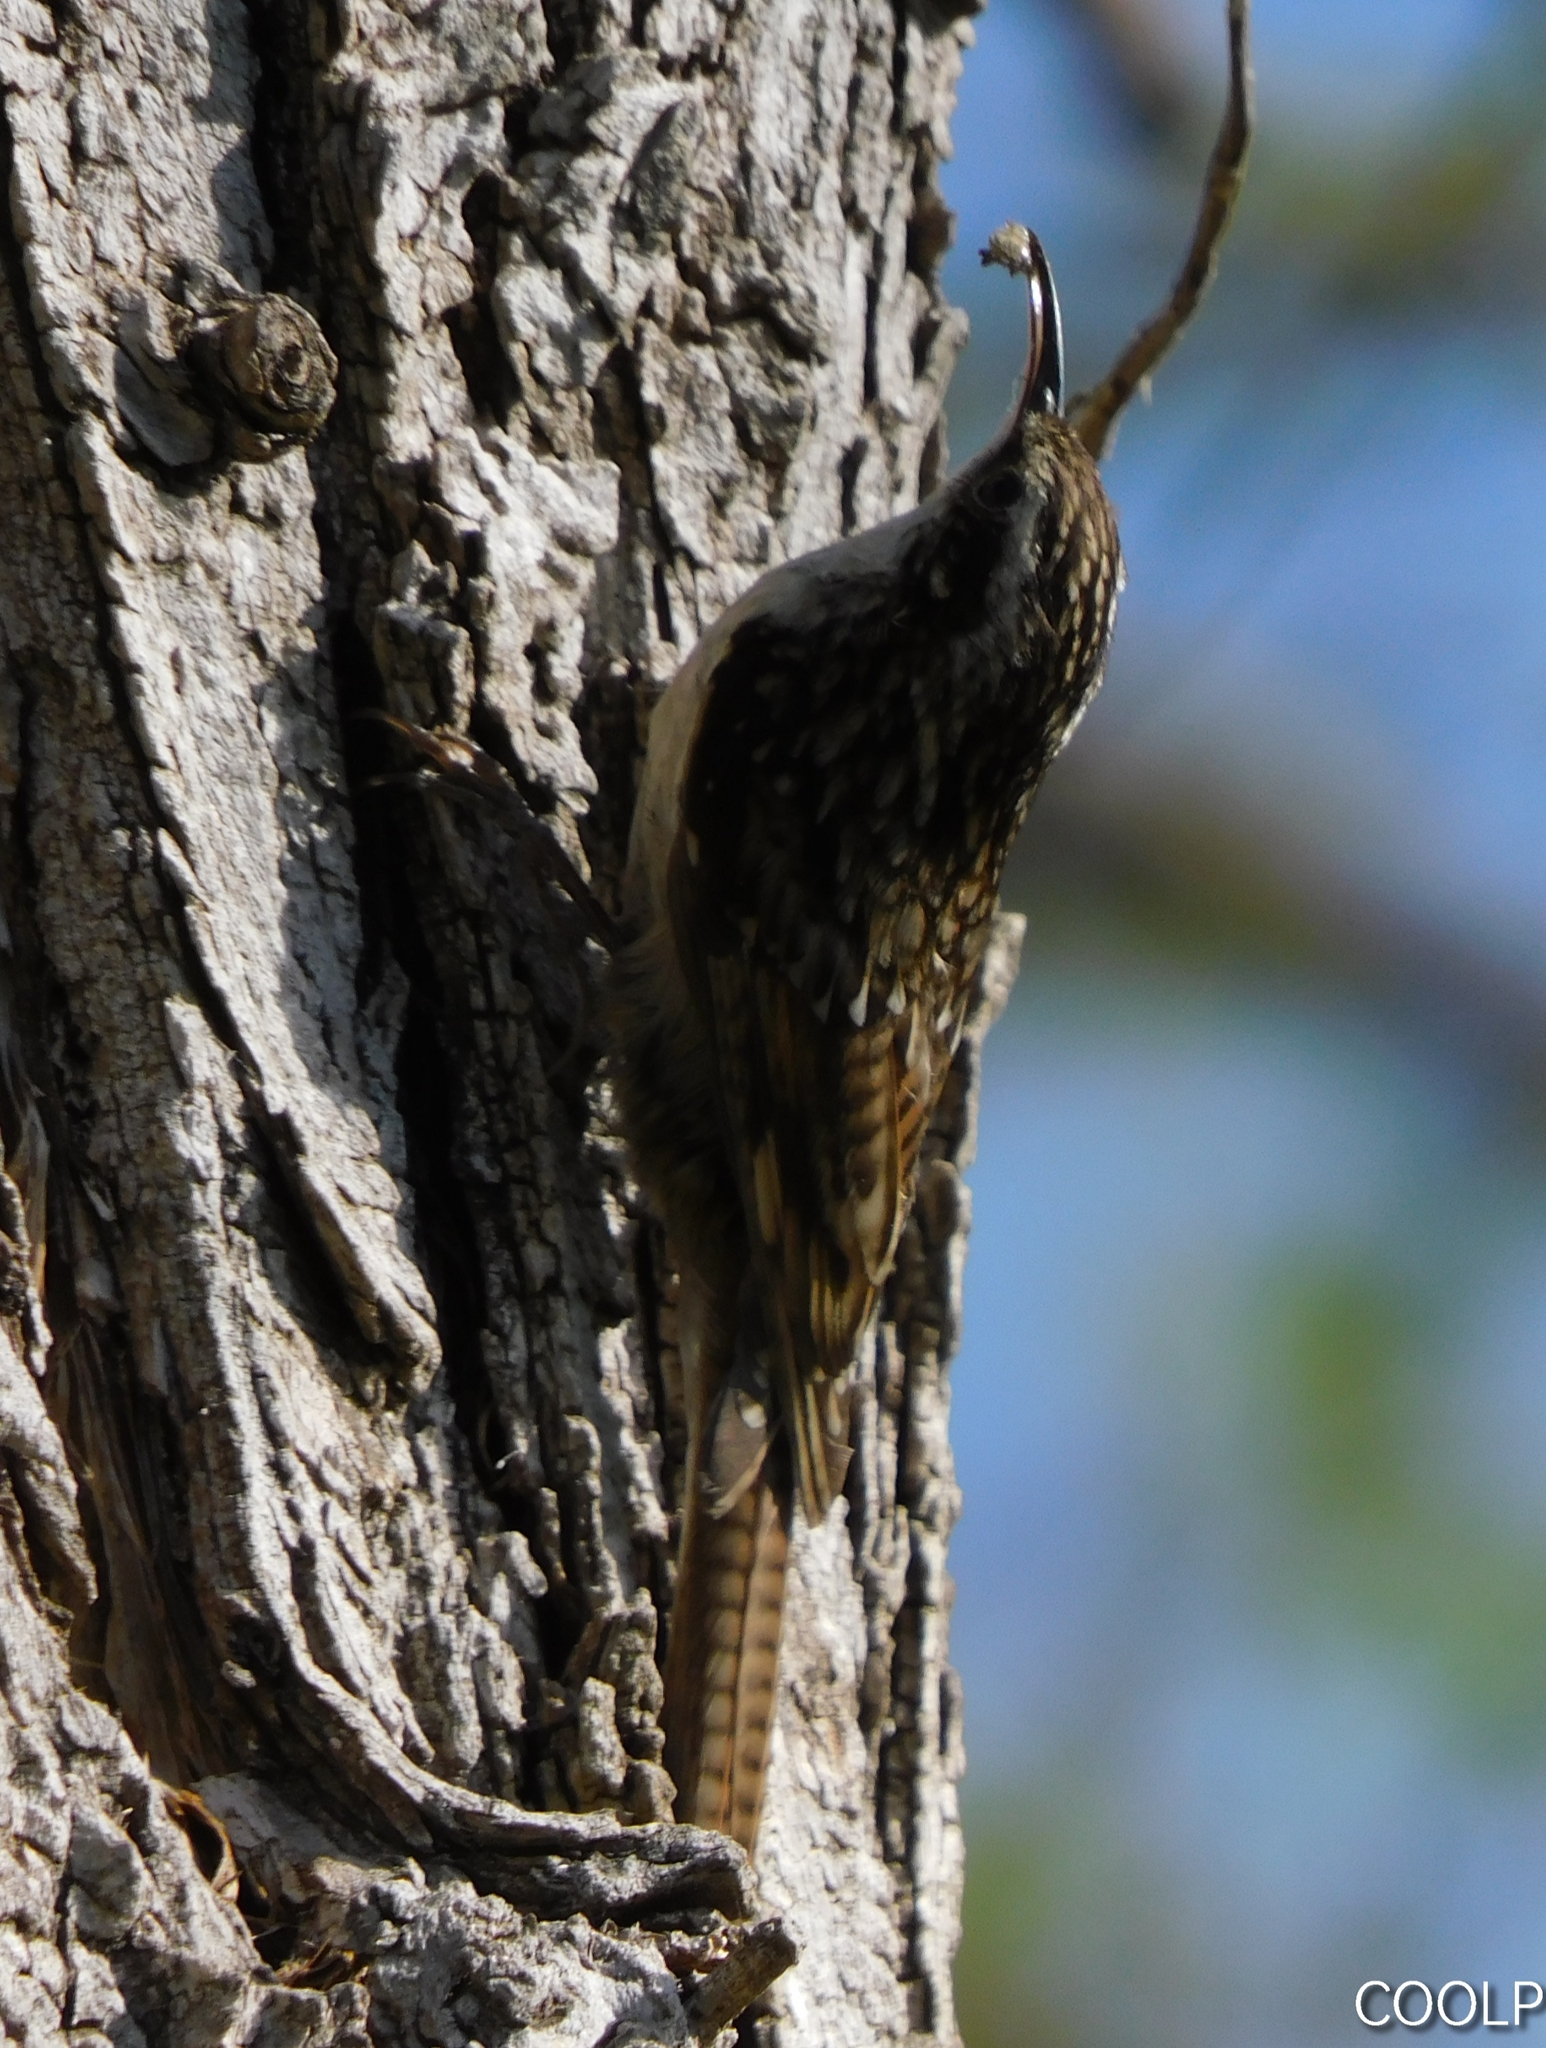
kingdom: Animalia
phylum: Chordata
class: Aves
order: Passeriformes
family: Certhiidae
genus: Certhia
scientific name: Certhia himalayana
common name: Bar-tailed treecreeper
